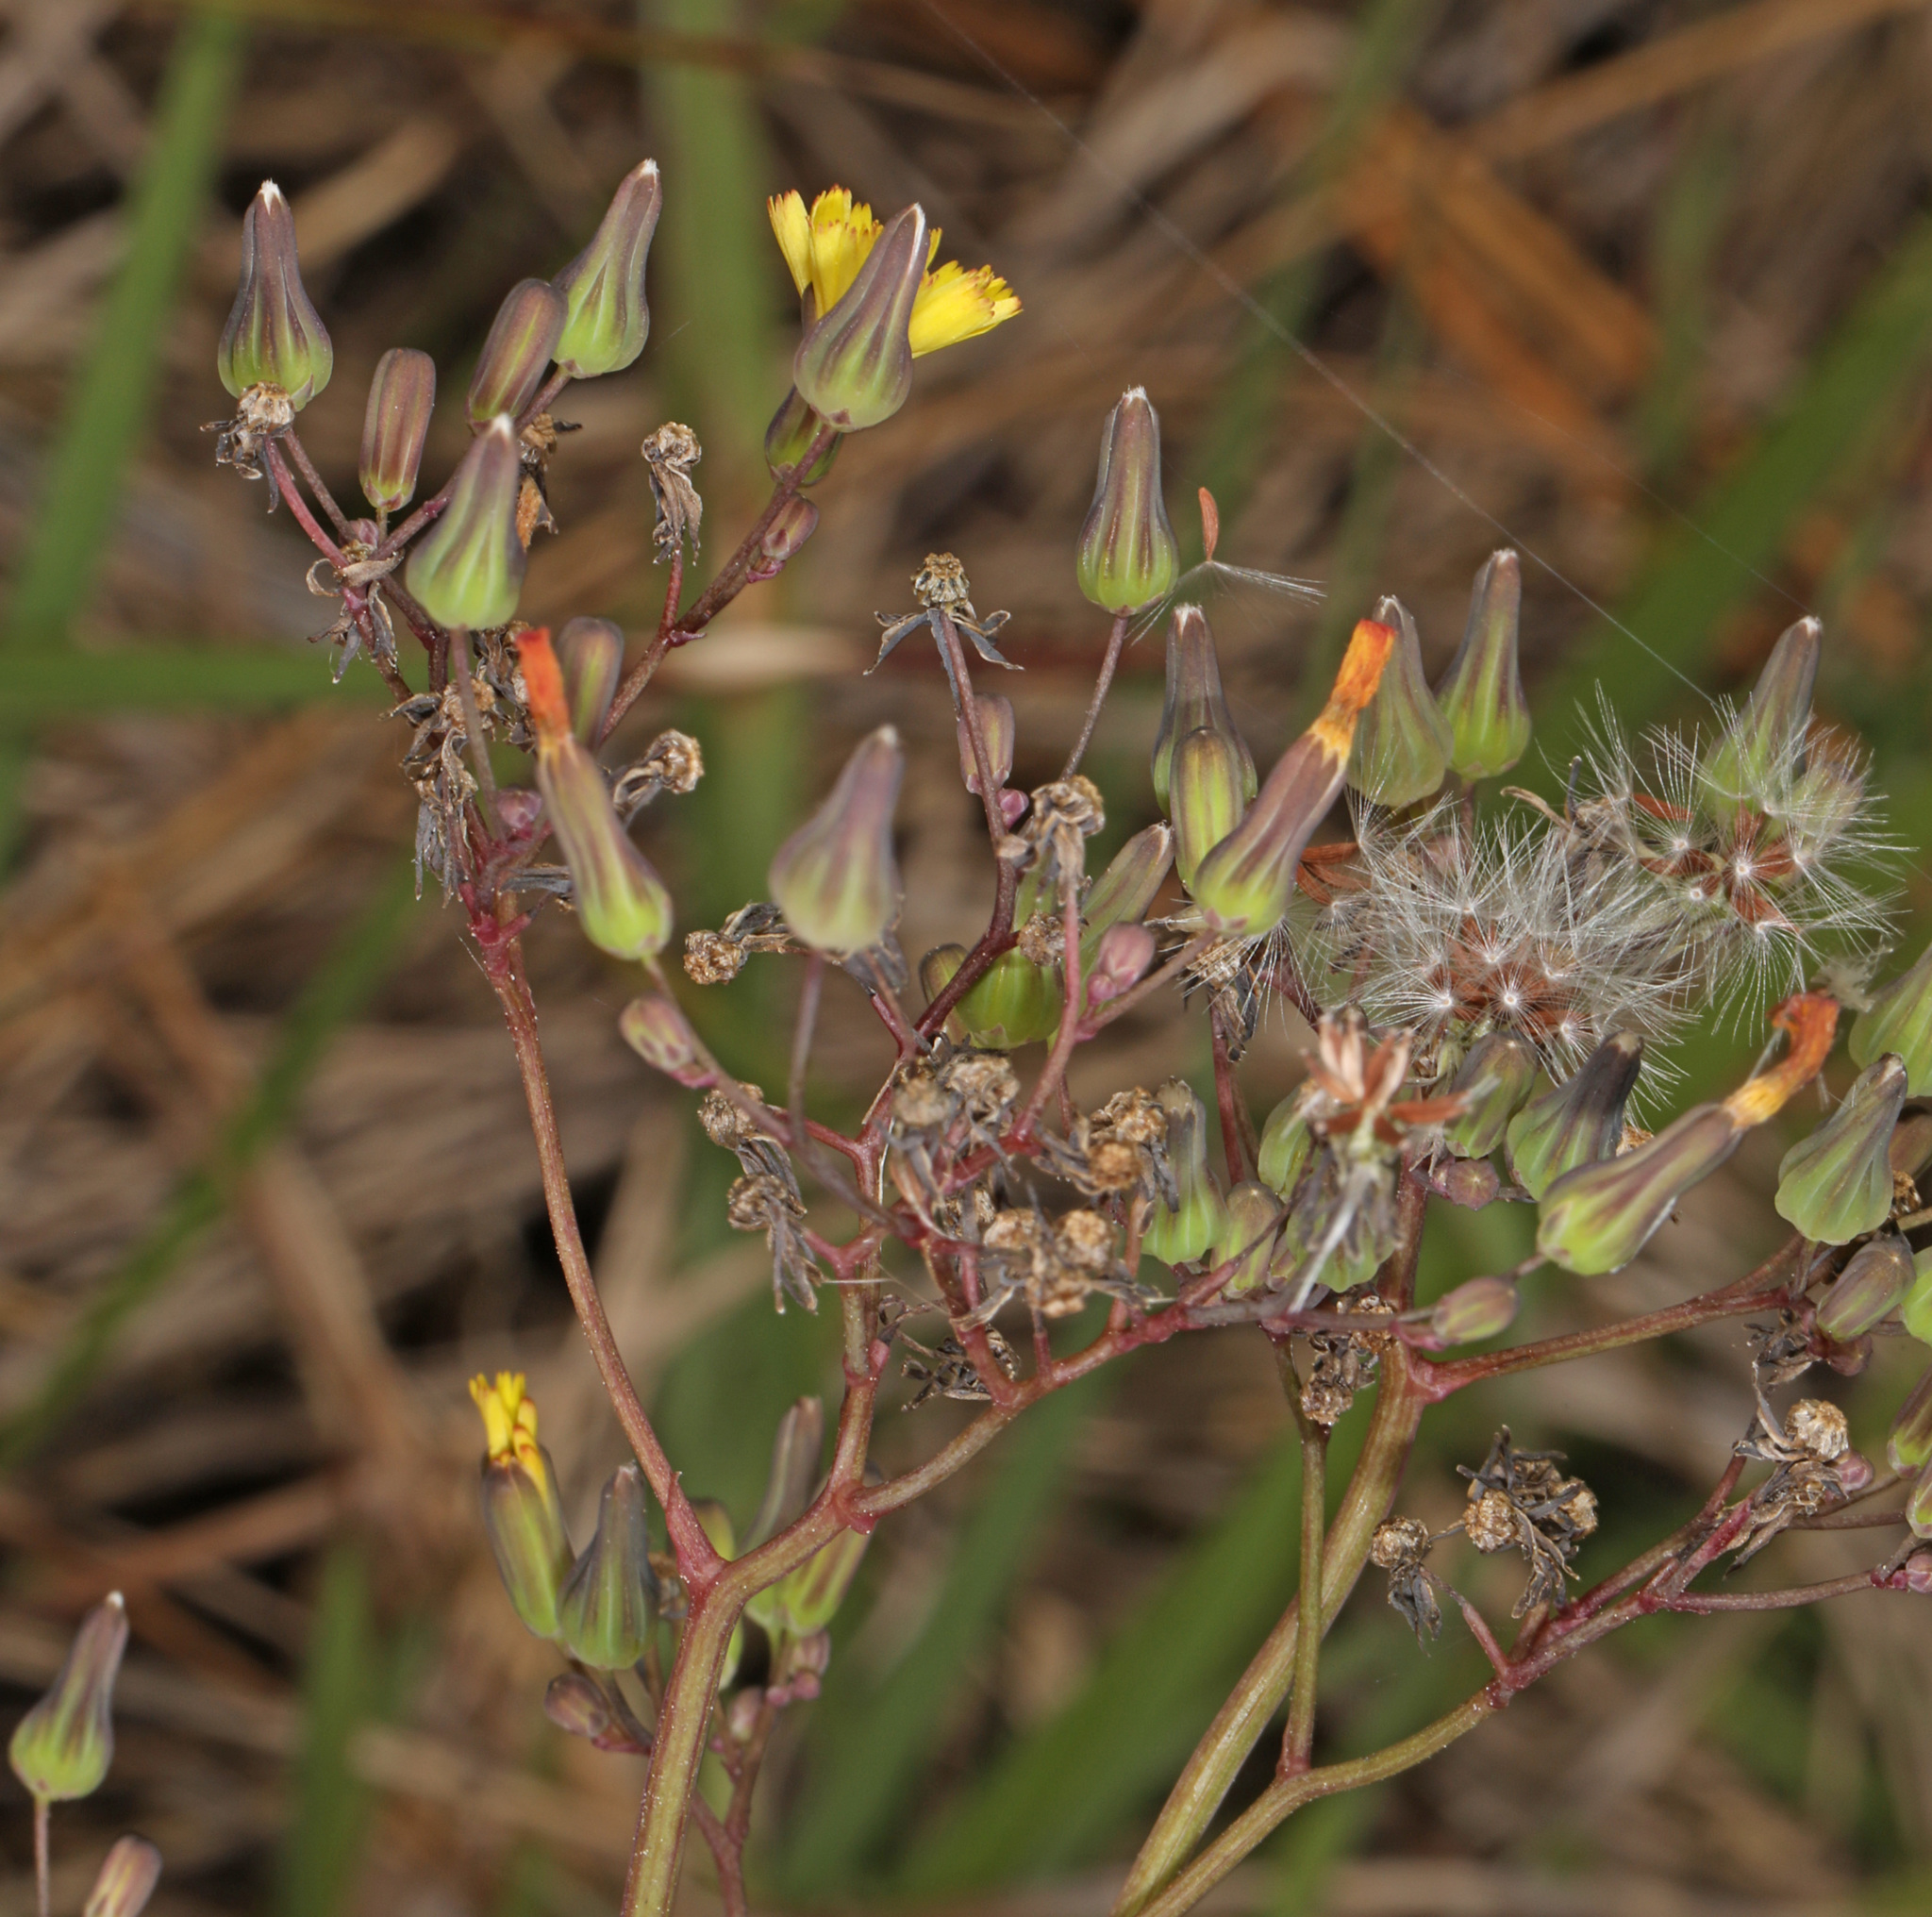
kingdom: Plantae
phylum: Tracheophyta
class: Magnoliopsida
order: Asterales
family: Asteraceae
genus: Youngia
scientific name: Youngia japonica
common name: Oriental false hawksbeard
